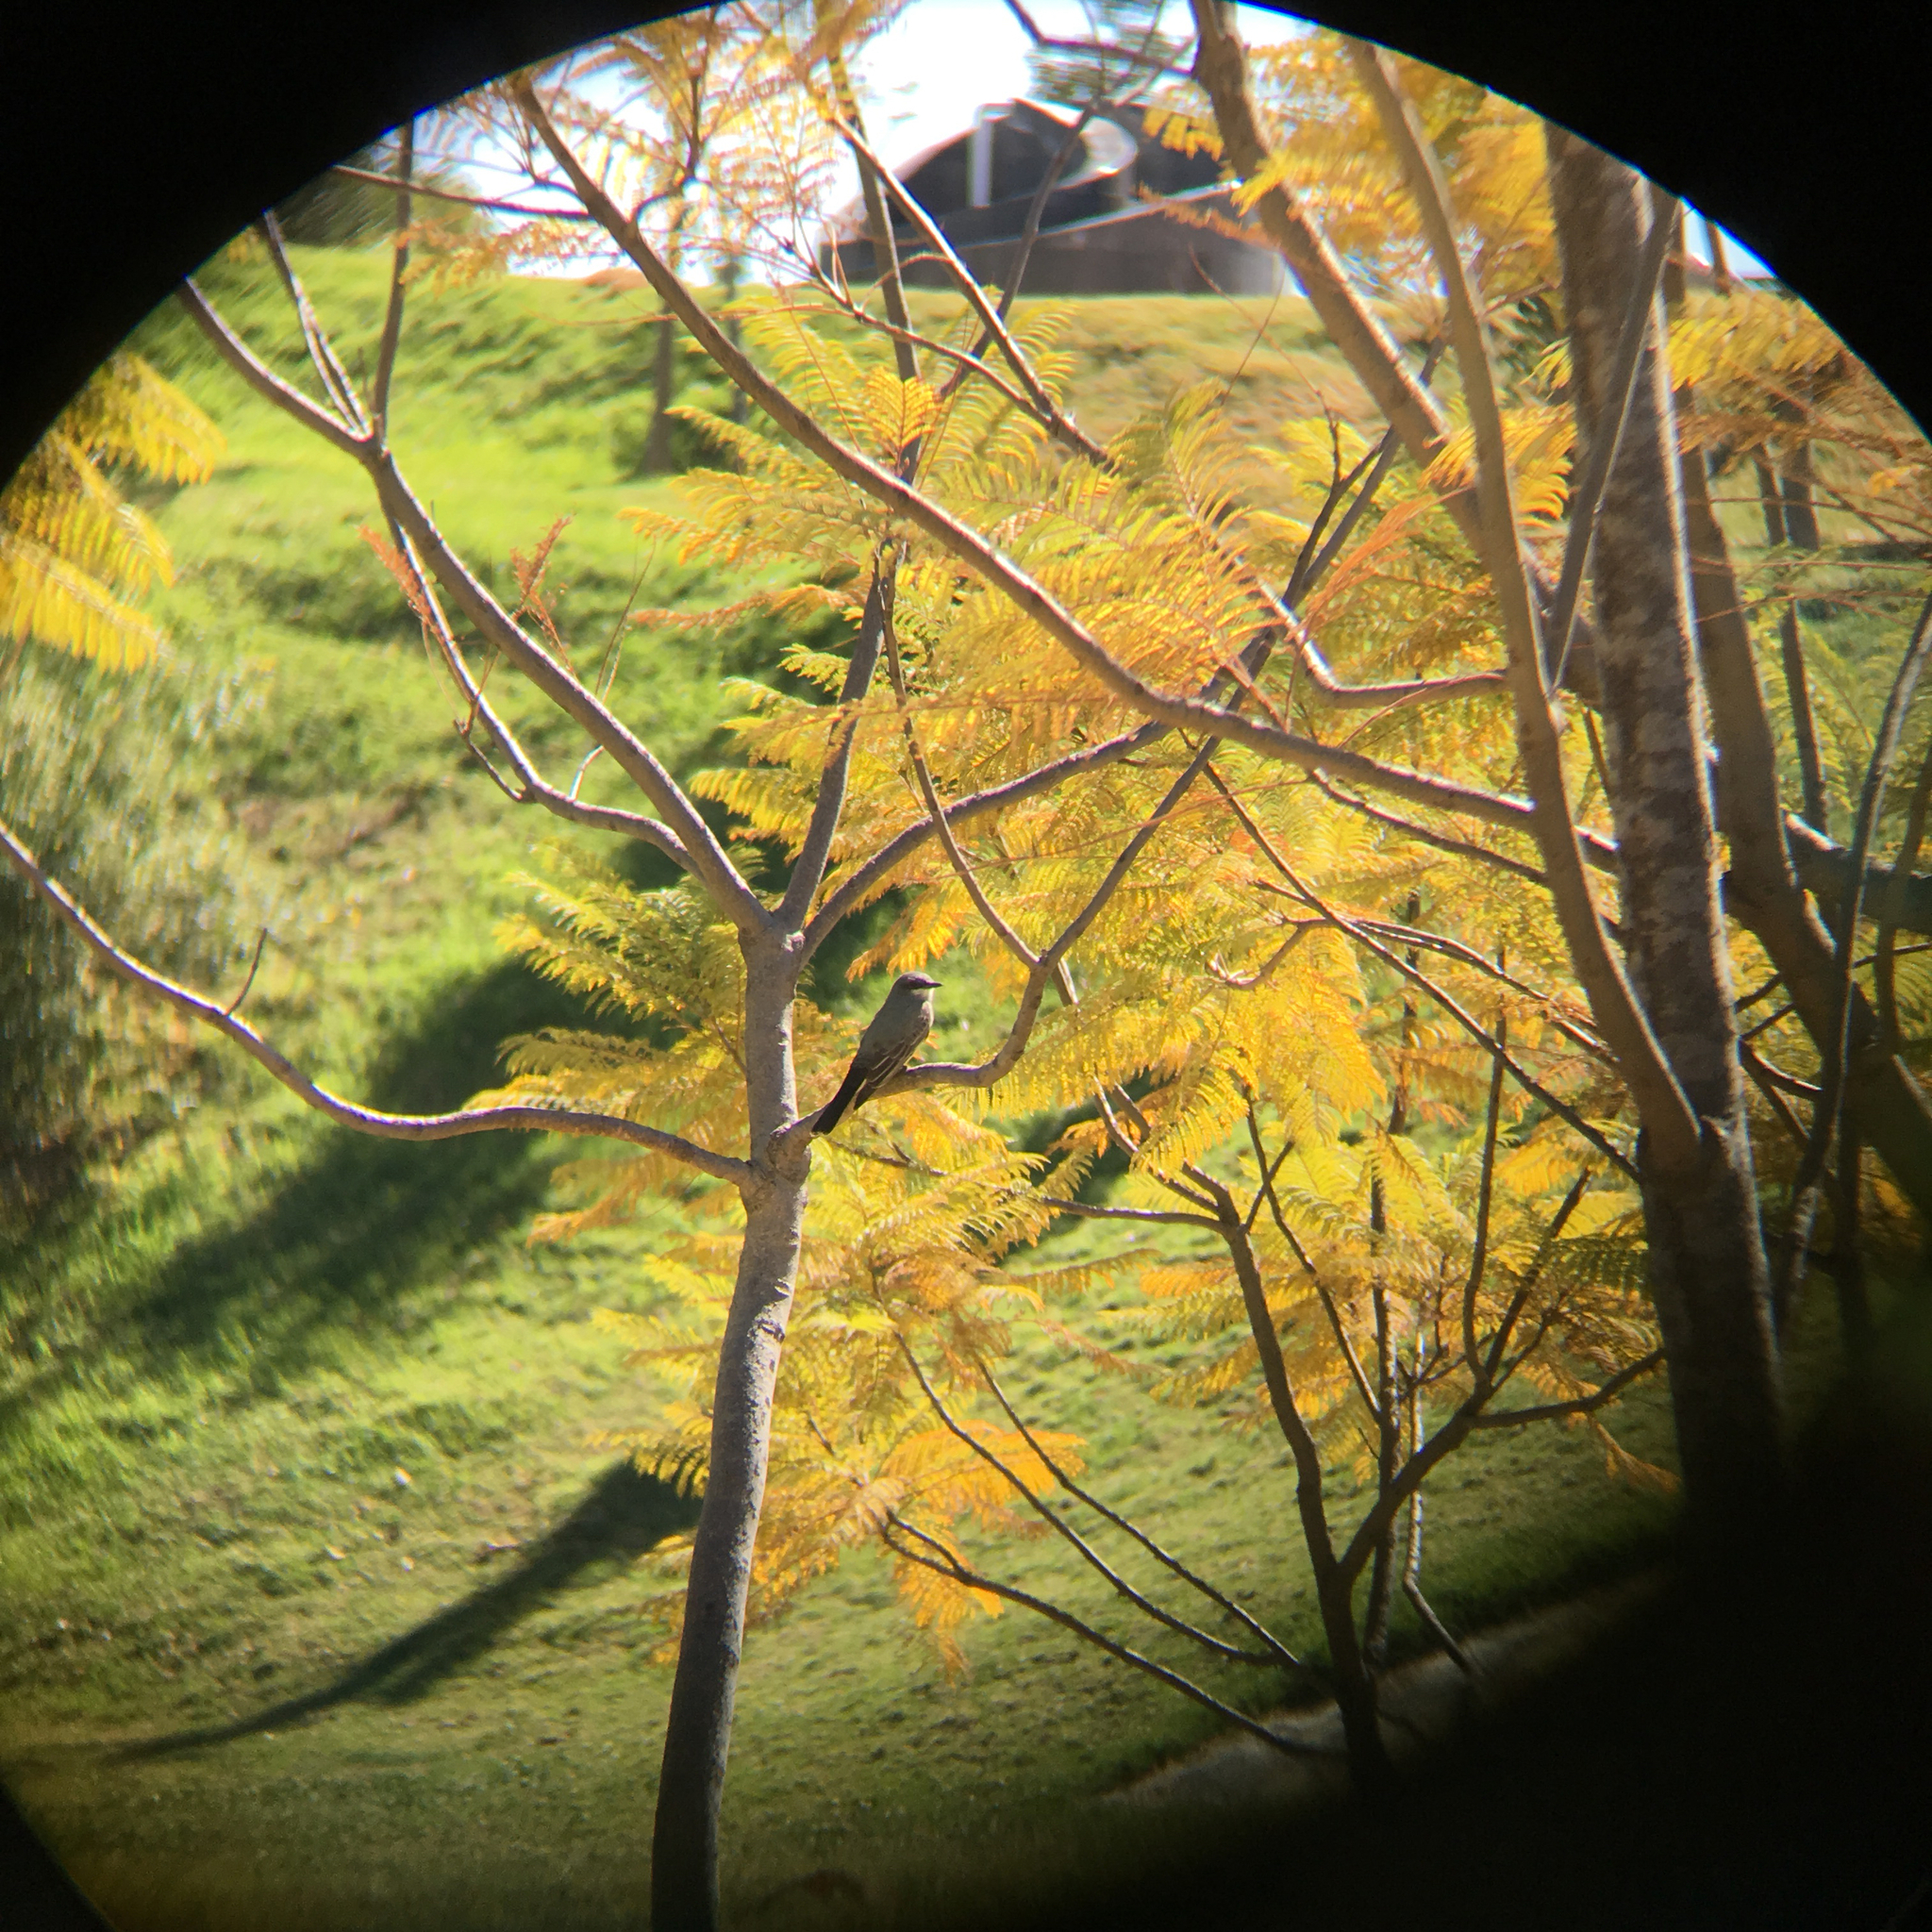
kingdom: Animalia
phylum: Chordata
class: Aves
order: Passeriformes
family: Tyrannidae
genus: Tyrannus
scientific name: Tyrannus vociferans
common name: Cassin's kingbird
